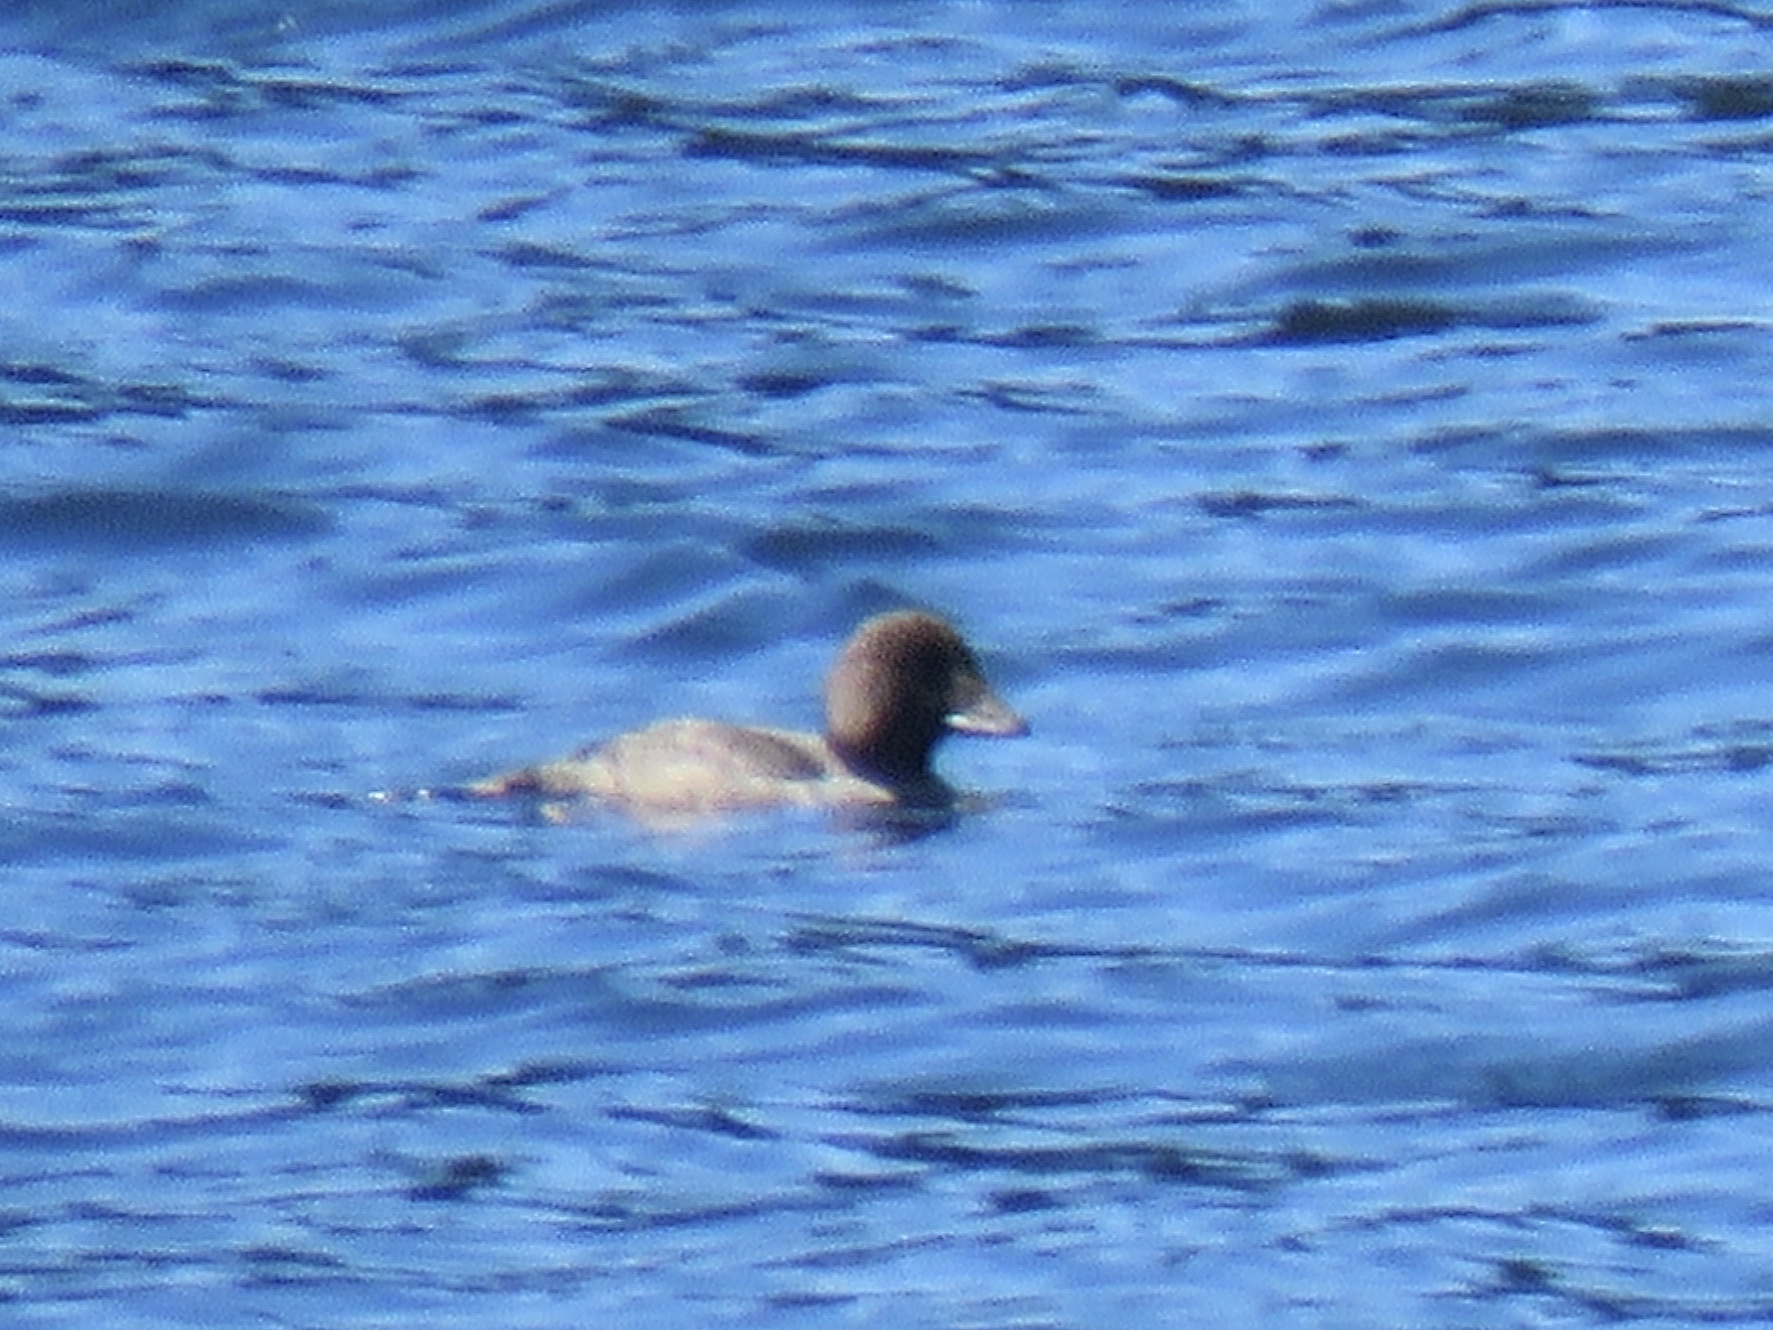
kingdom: Animalia
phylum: Chordata
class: Aves
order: Anseriformes
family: Anatidae
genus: Bucephala
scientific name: Bucephala islandica
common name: Barrow's goldeneye
